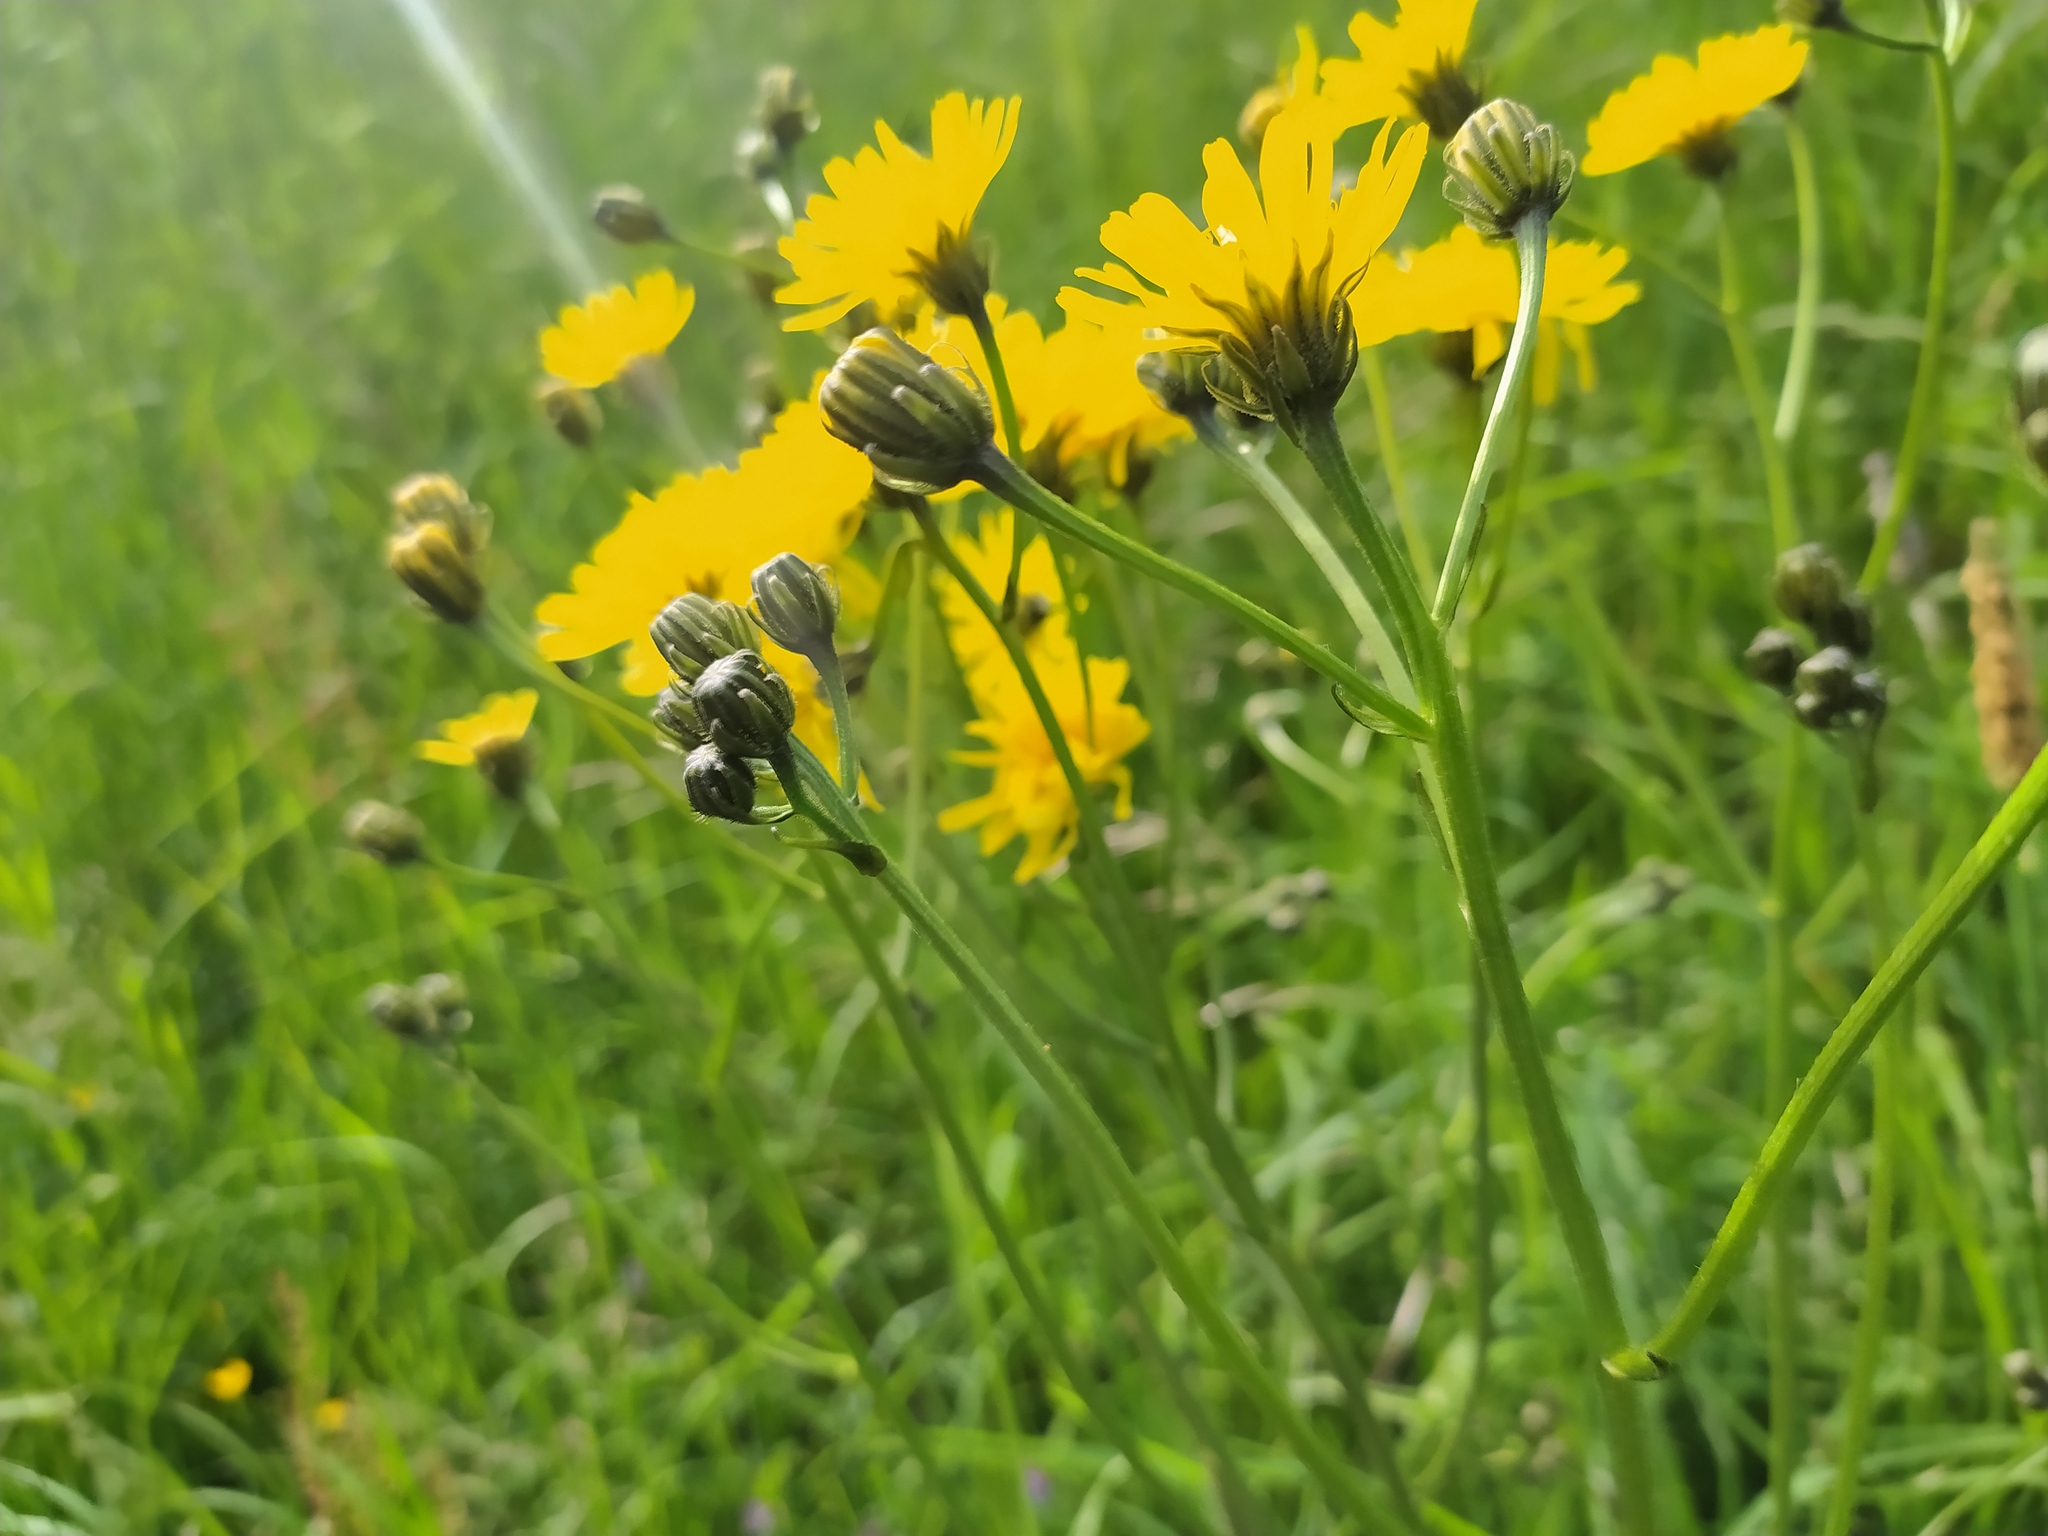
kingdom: Plantae
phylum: Tracheophyta
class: Magnoliopsida
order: Asterales
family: Asteraceae
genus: Crepis
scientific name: Crepis biennis
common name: Rough hawk's-beard
